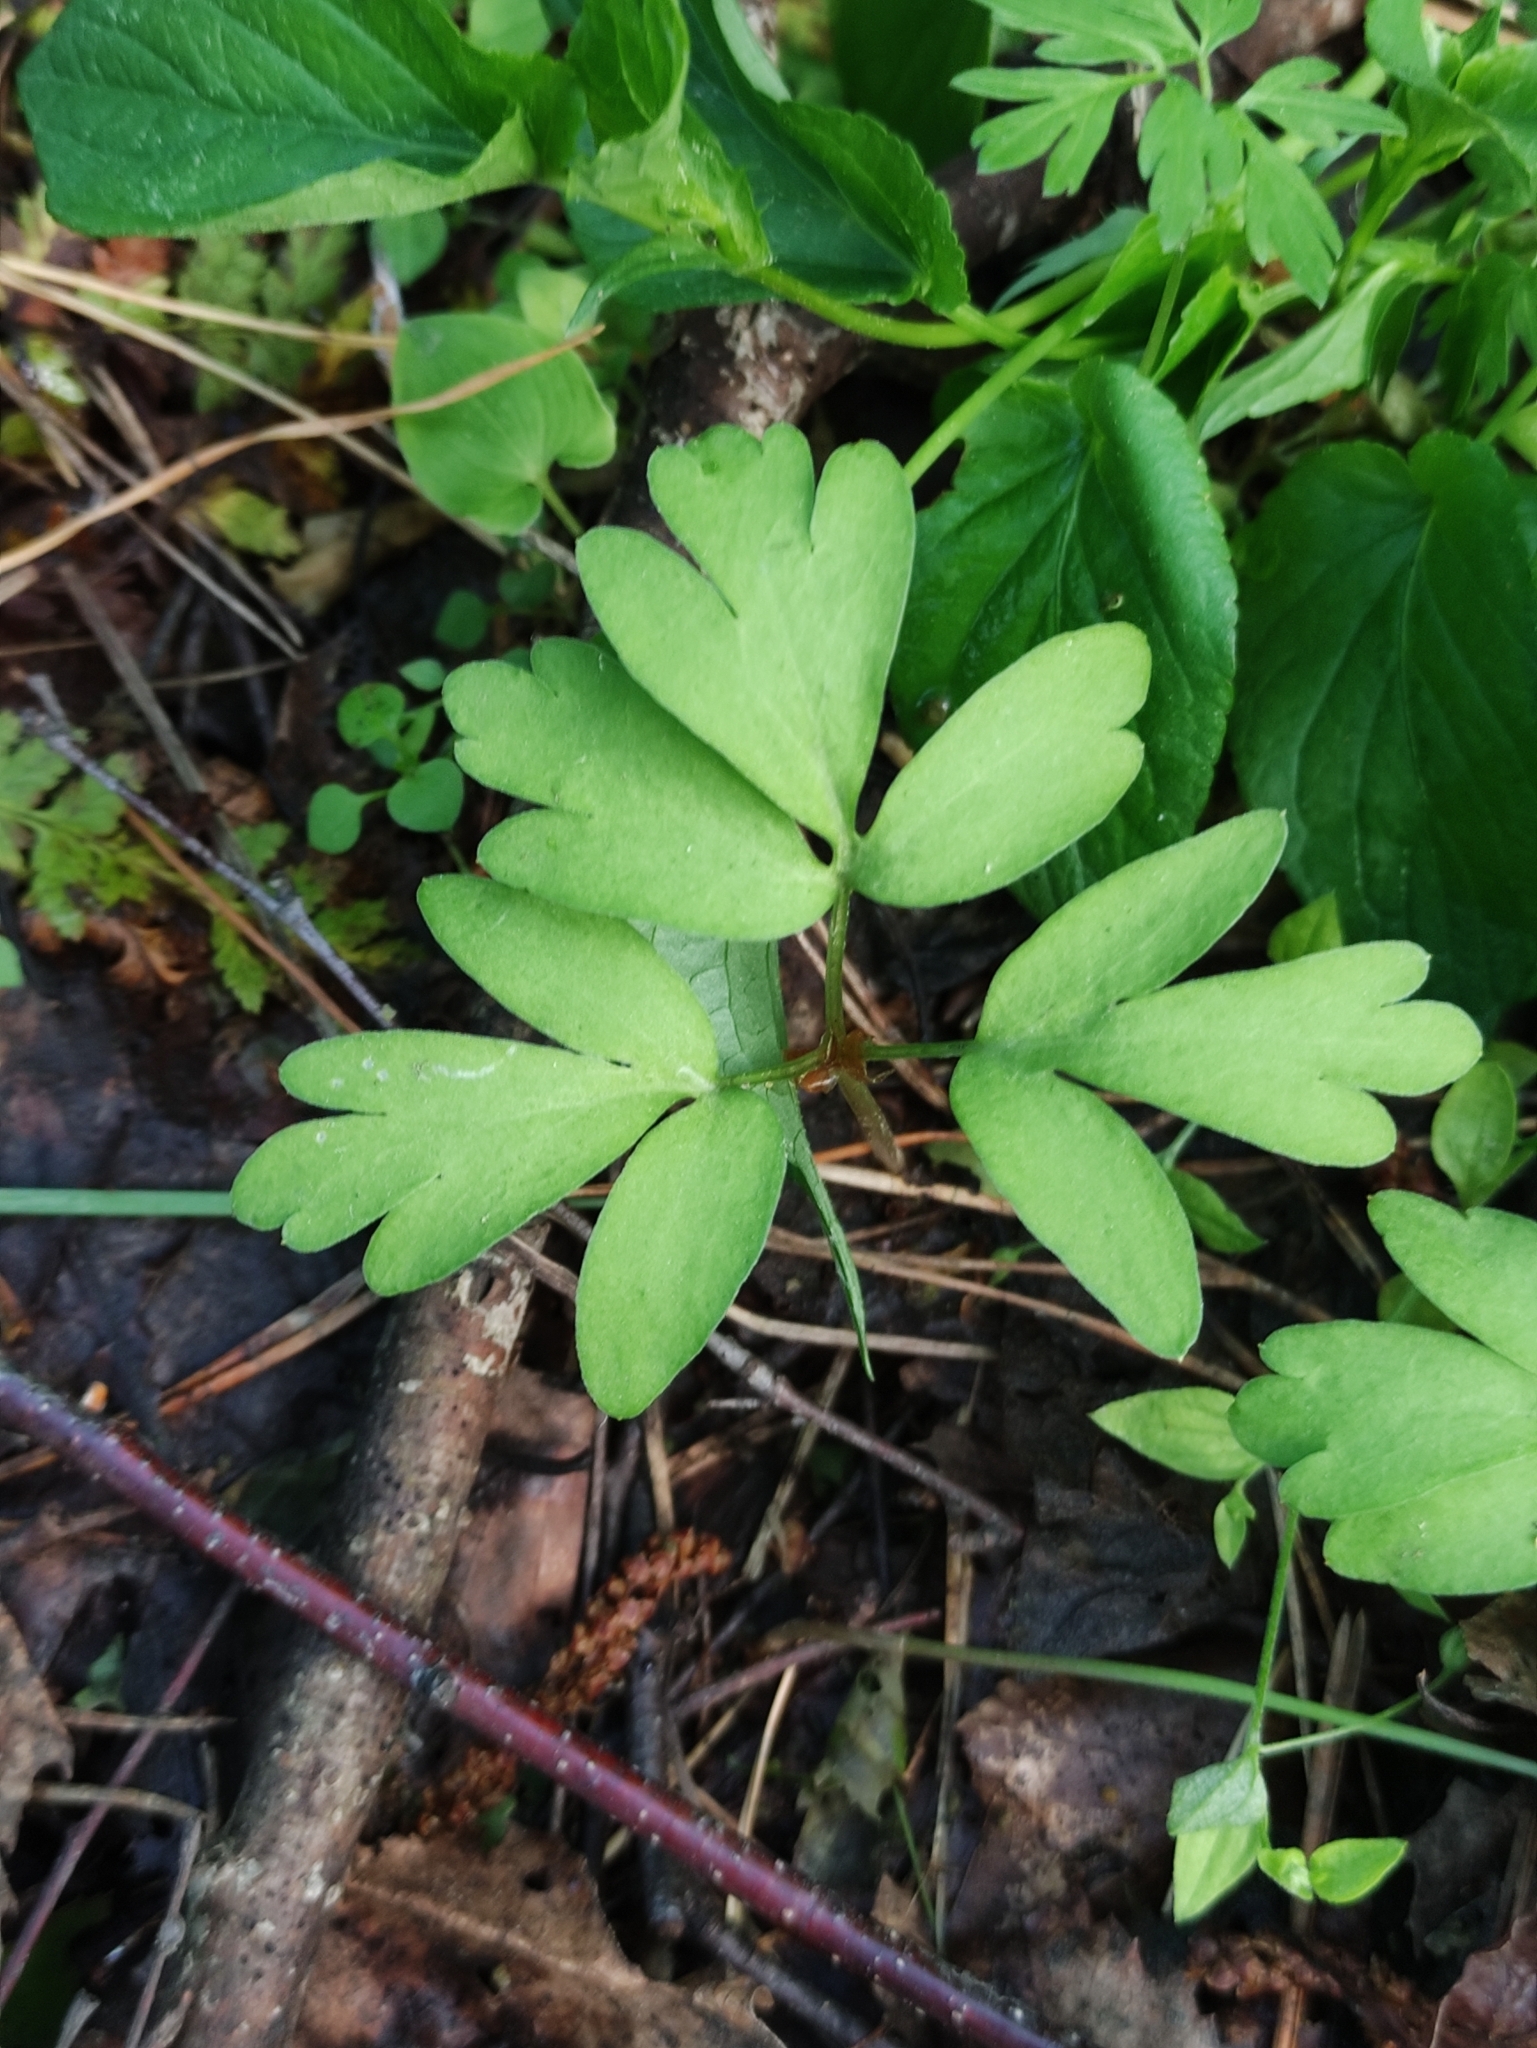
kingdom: Plantae
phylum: Tracheophyta
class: Magnoliopsida
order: Dipsacales
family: Viburnaceae
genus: Adoxa
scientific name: Adoxa moschatellina
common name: Moschatel
